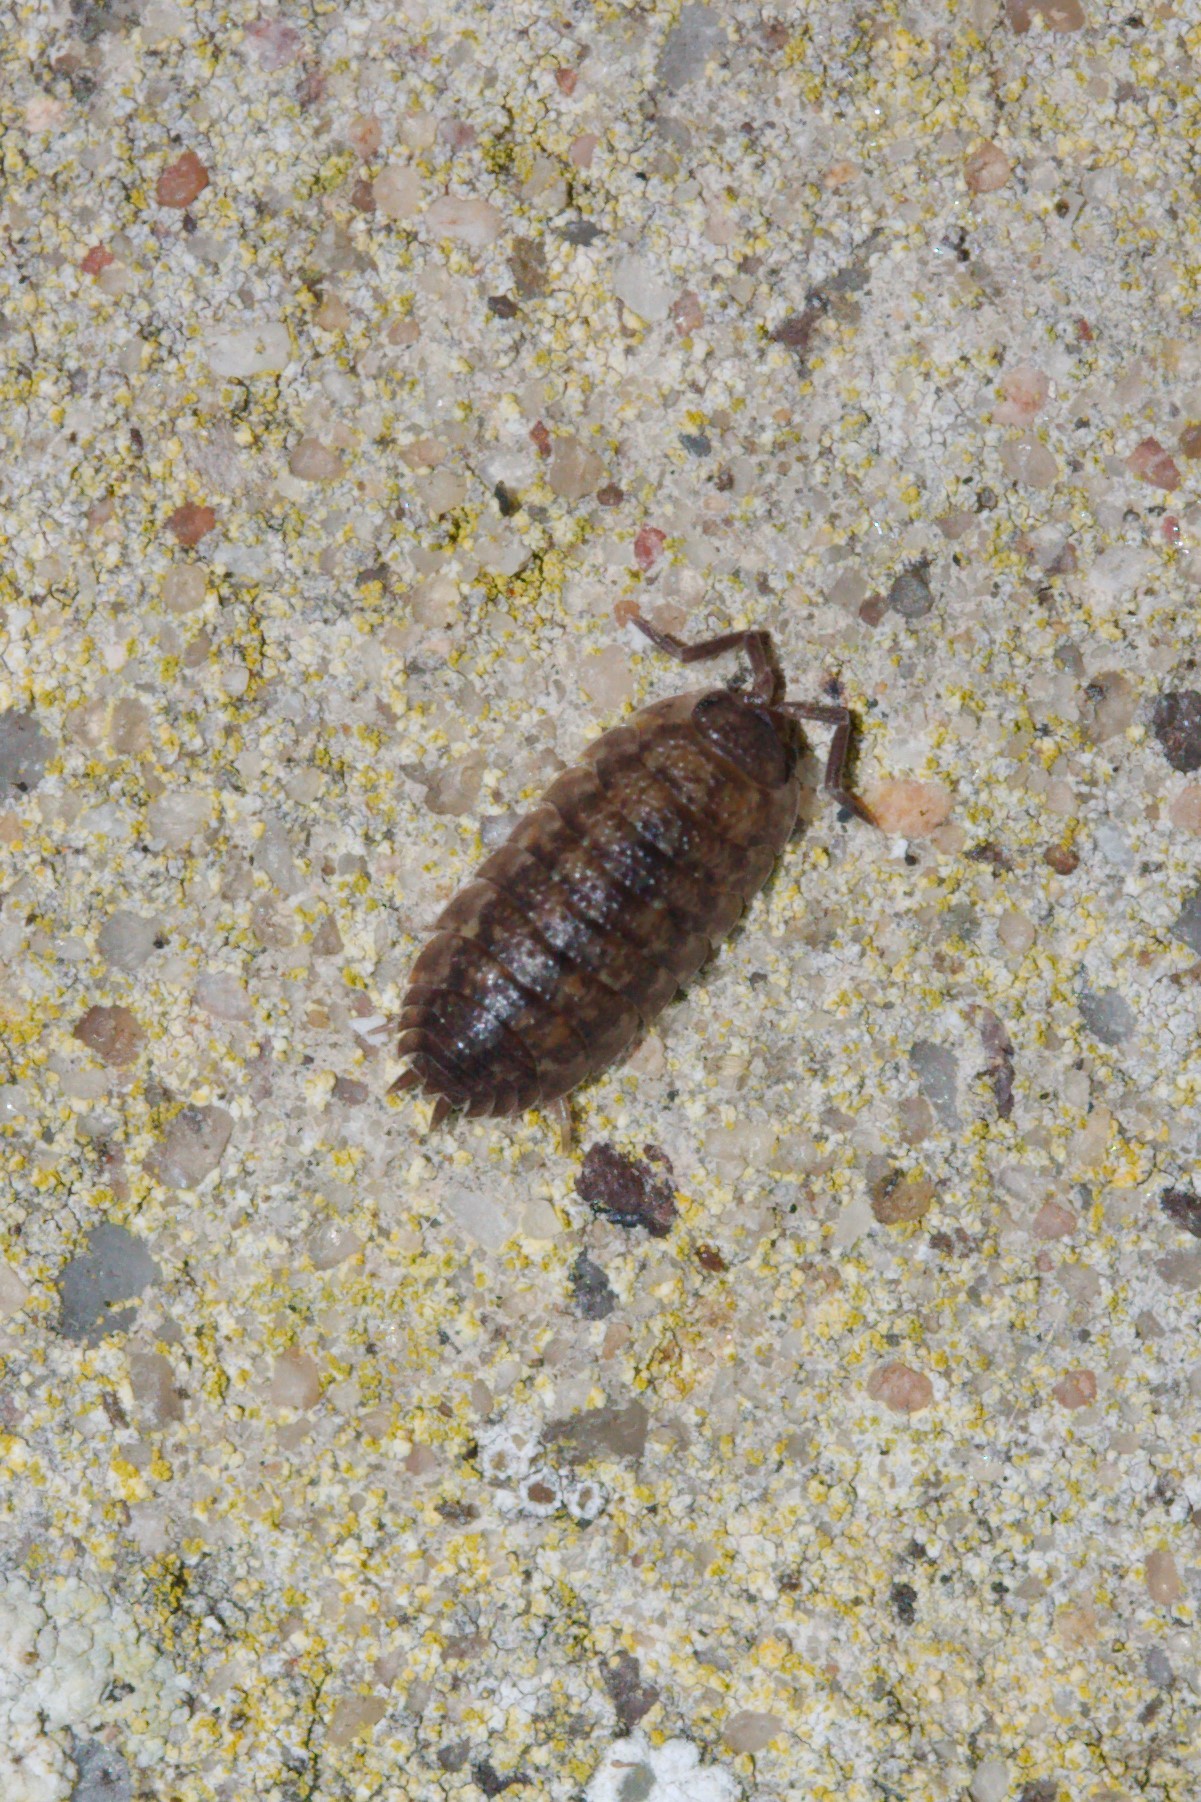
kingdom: Animalia
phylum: Arthropoda
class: Malacostraca
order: Isopoda
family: Porcellionidae
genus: Porcellio
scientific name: Porcellio scaber
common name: Common rough woodlouse
